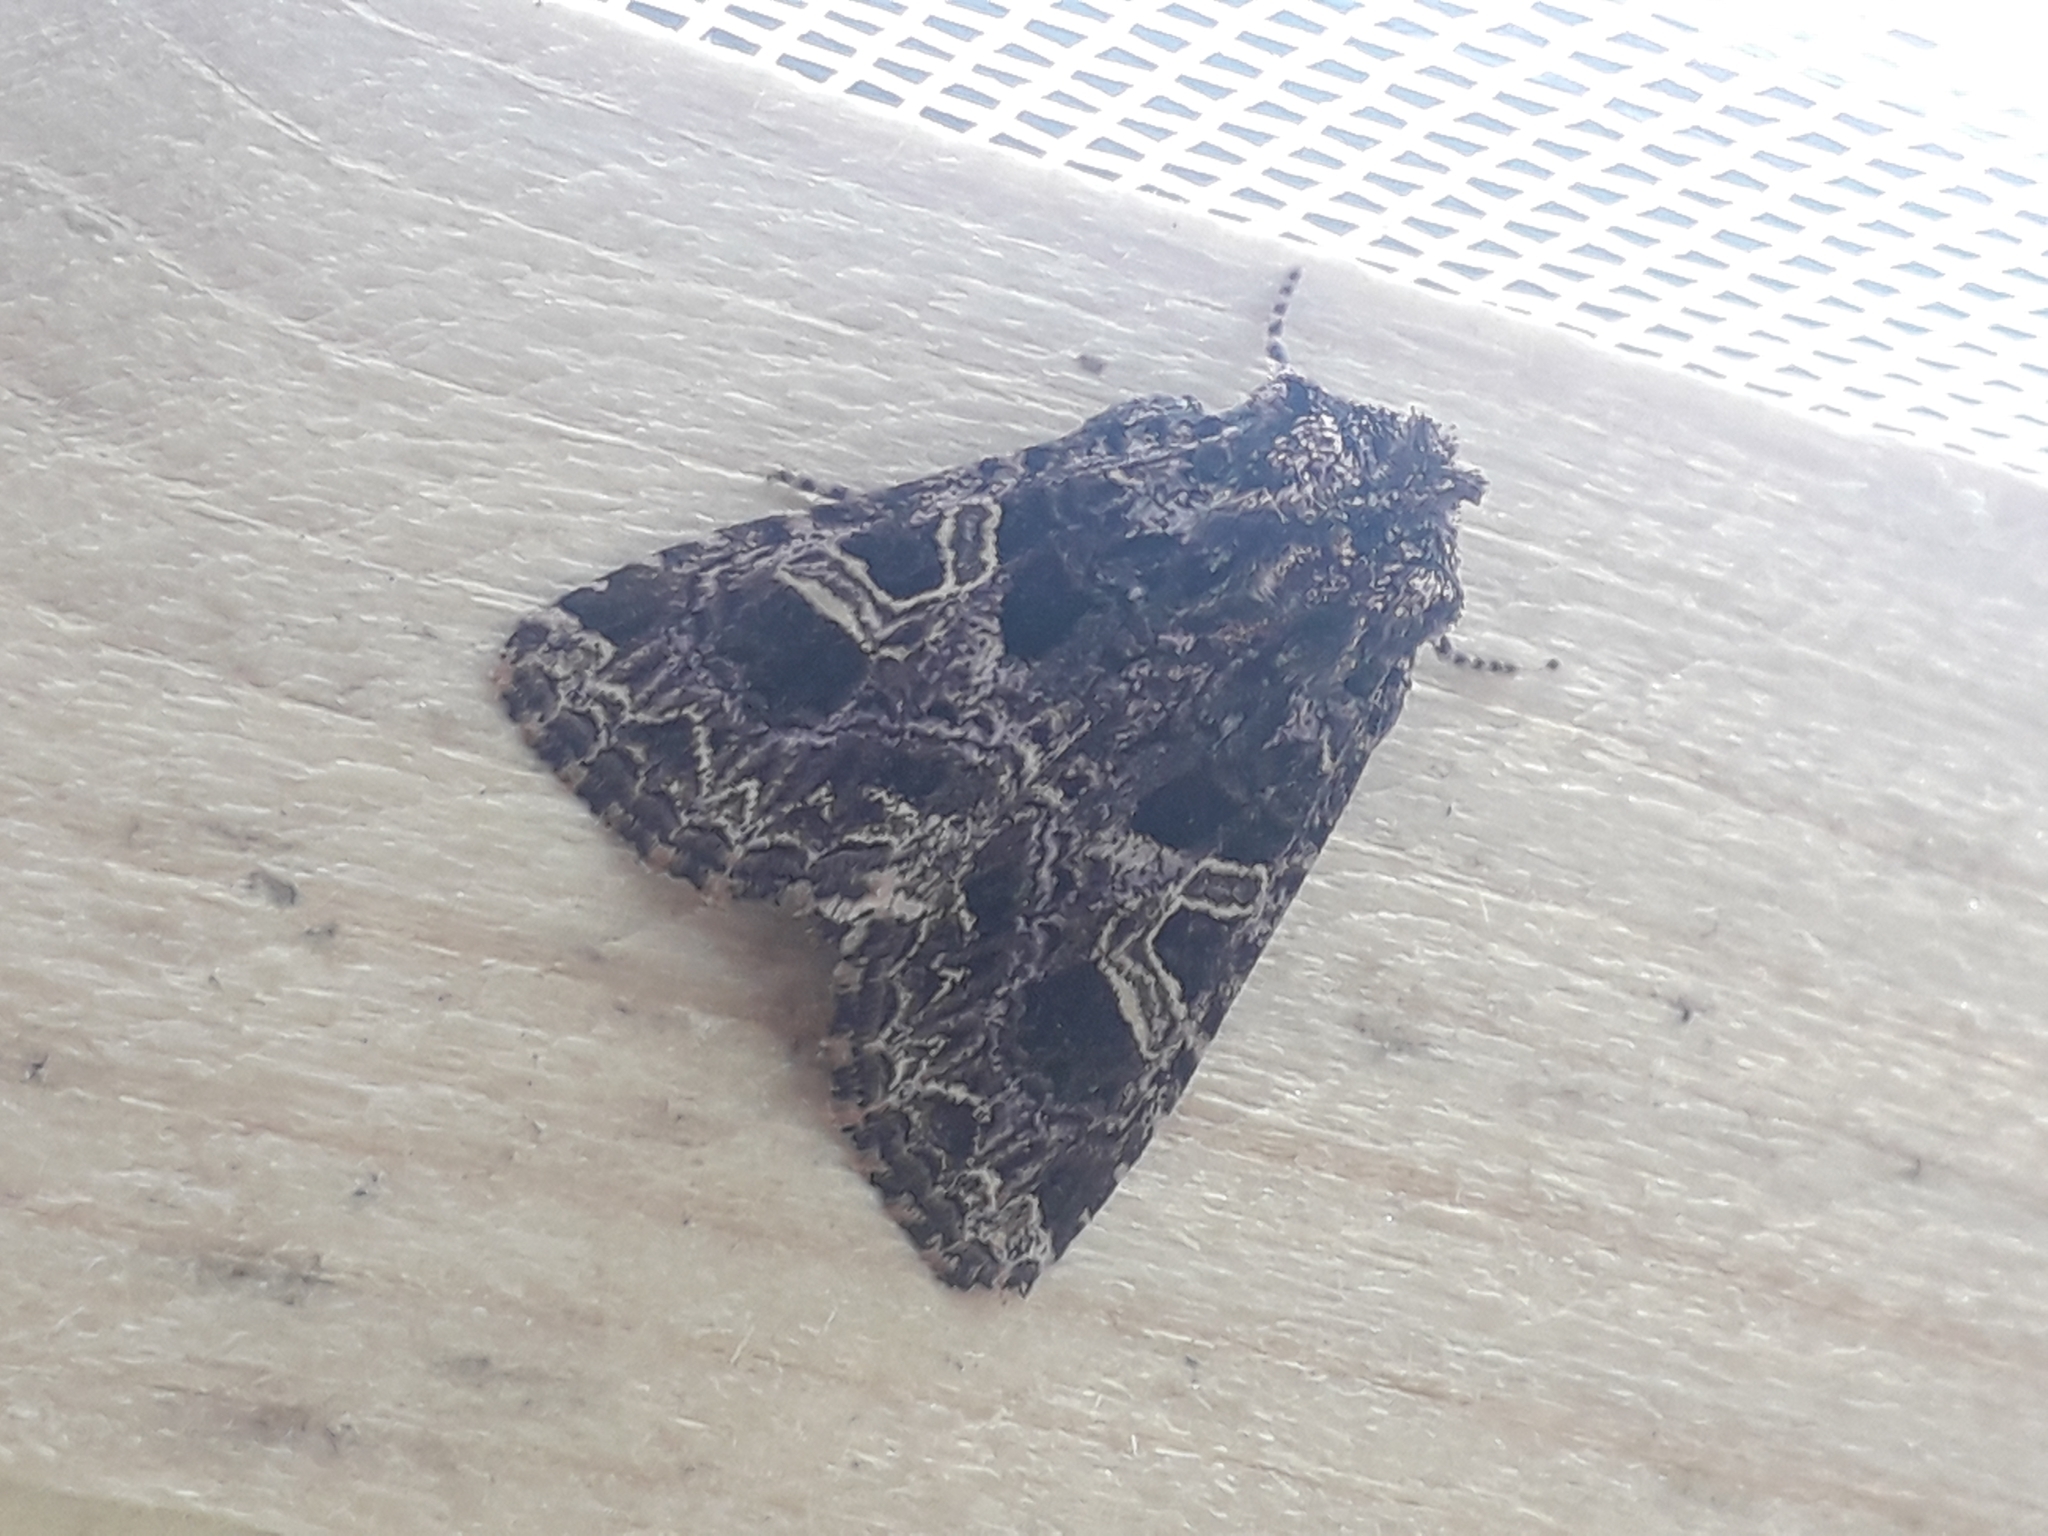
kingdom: Animalia
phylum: Arthropoda
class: Insecta
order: Lepidoptera
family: Noctuidae
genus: Sideridis
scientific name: Sideridis rivularis
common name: Campion
